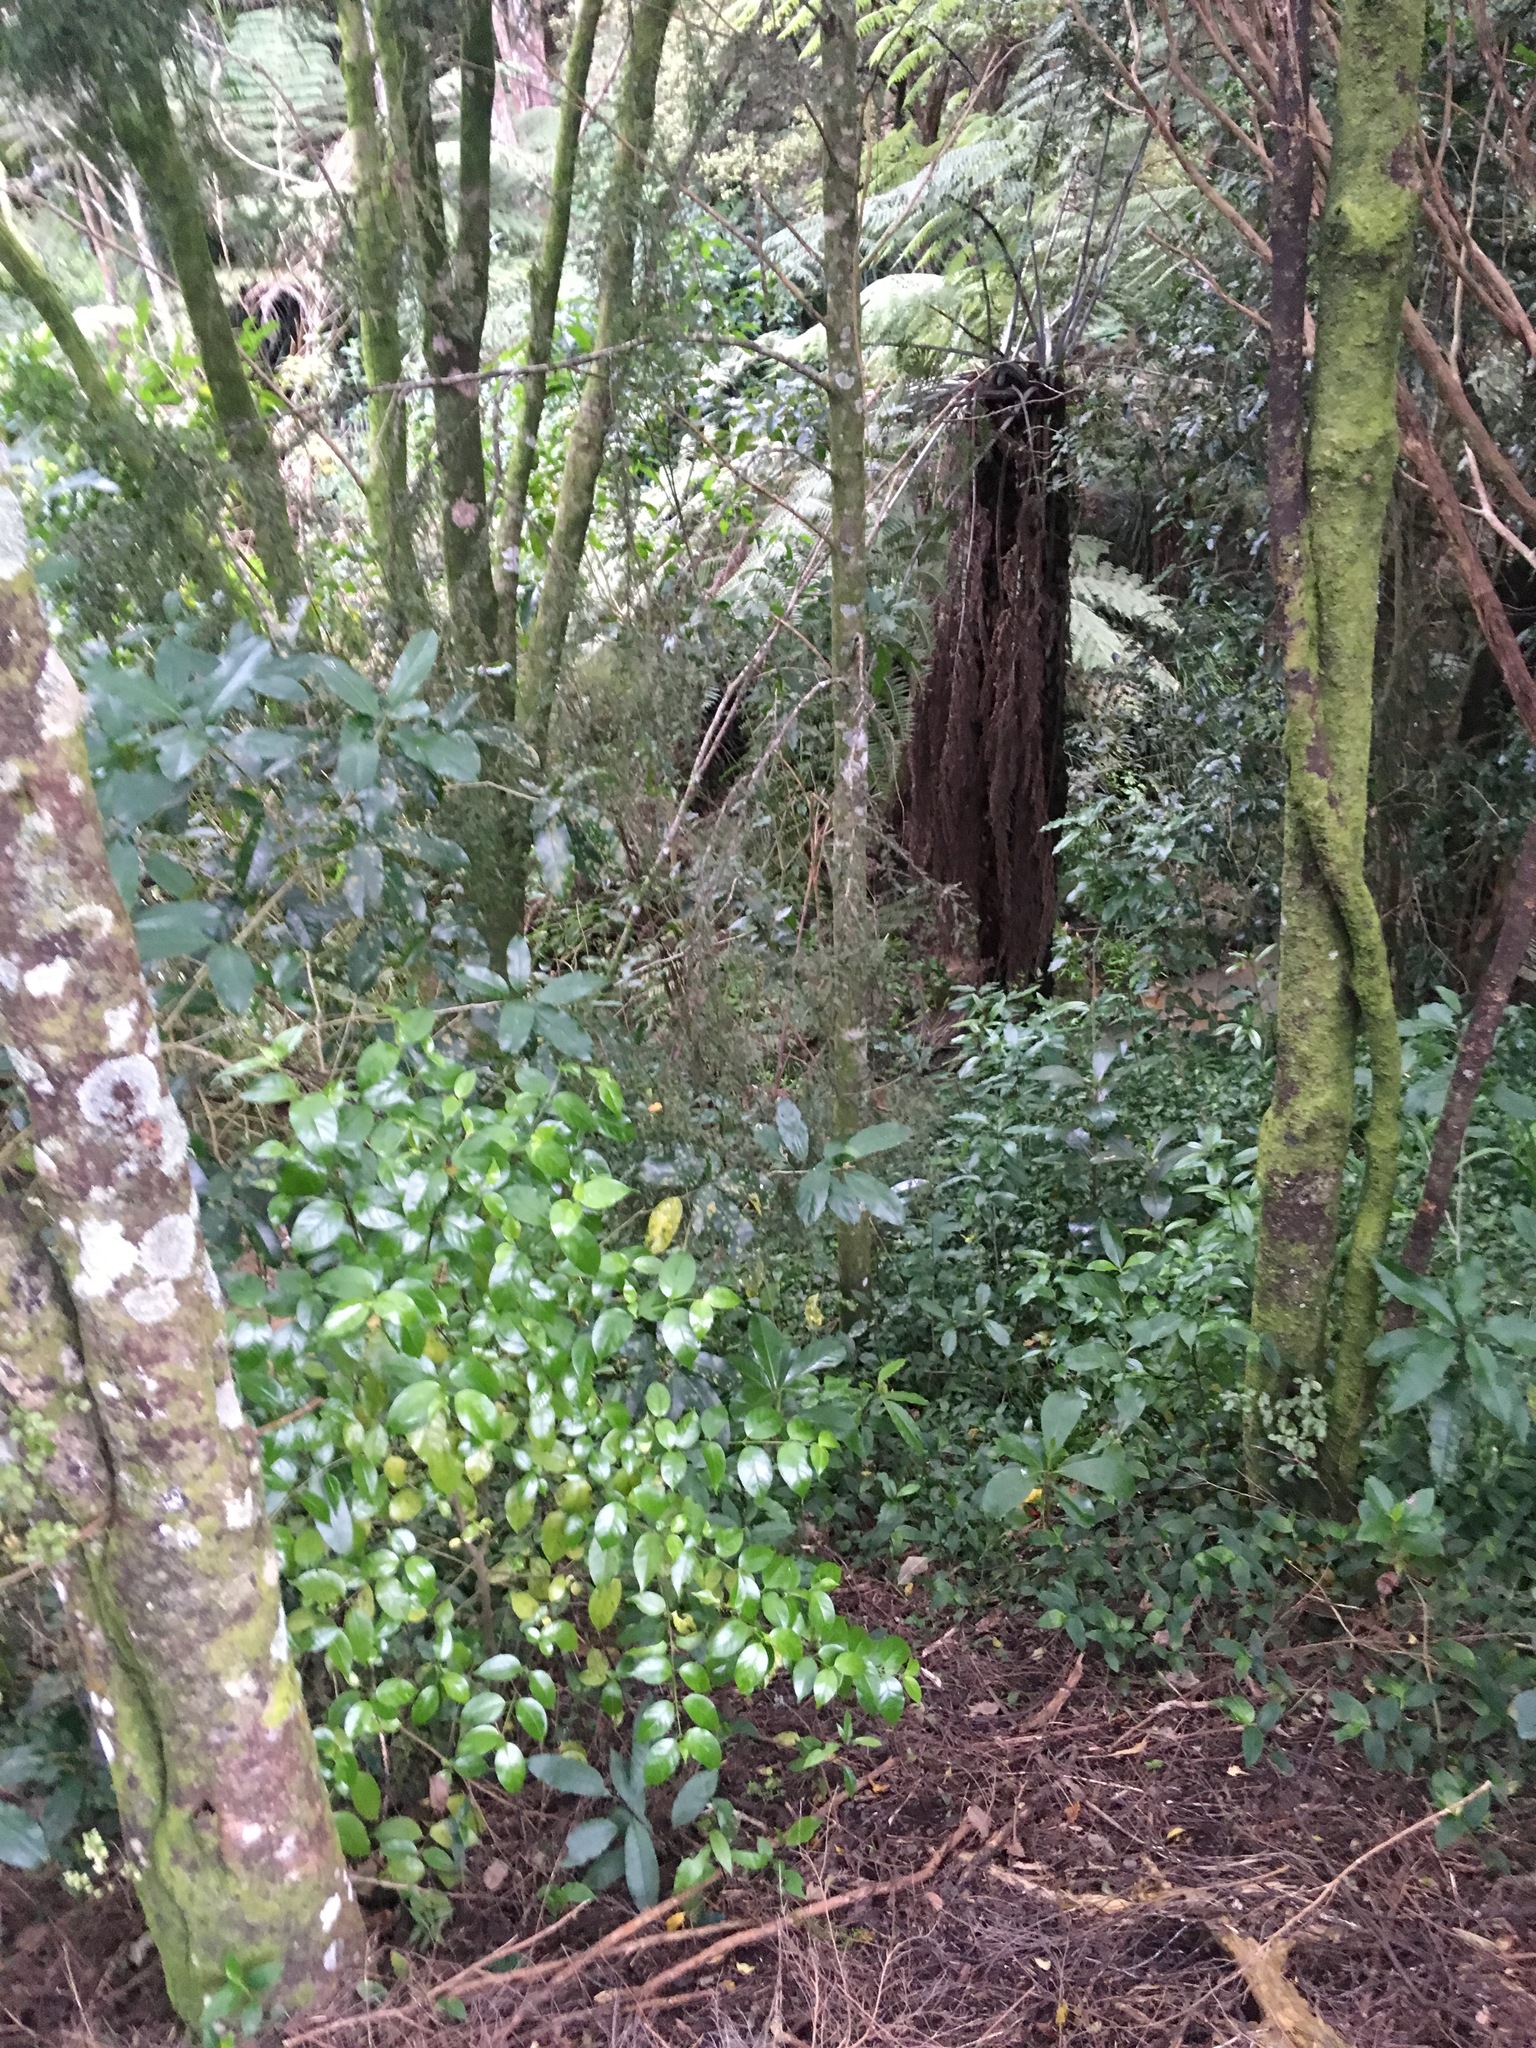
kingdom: Plantae
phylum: Tracheophyta
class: Magnoliopsida
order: Gentianales
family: Loganiaceae
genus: Geniostoma
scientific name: Geniostoma ligustrifolium
